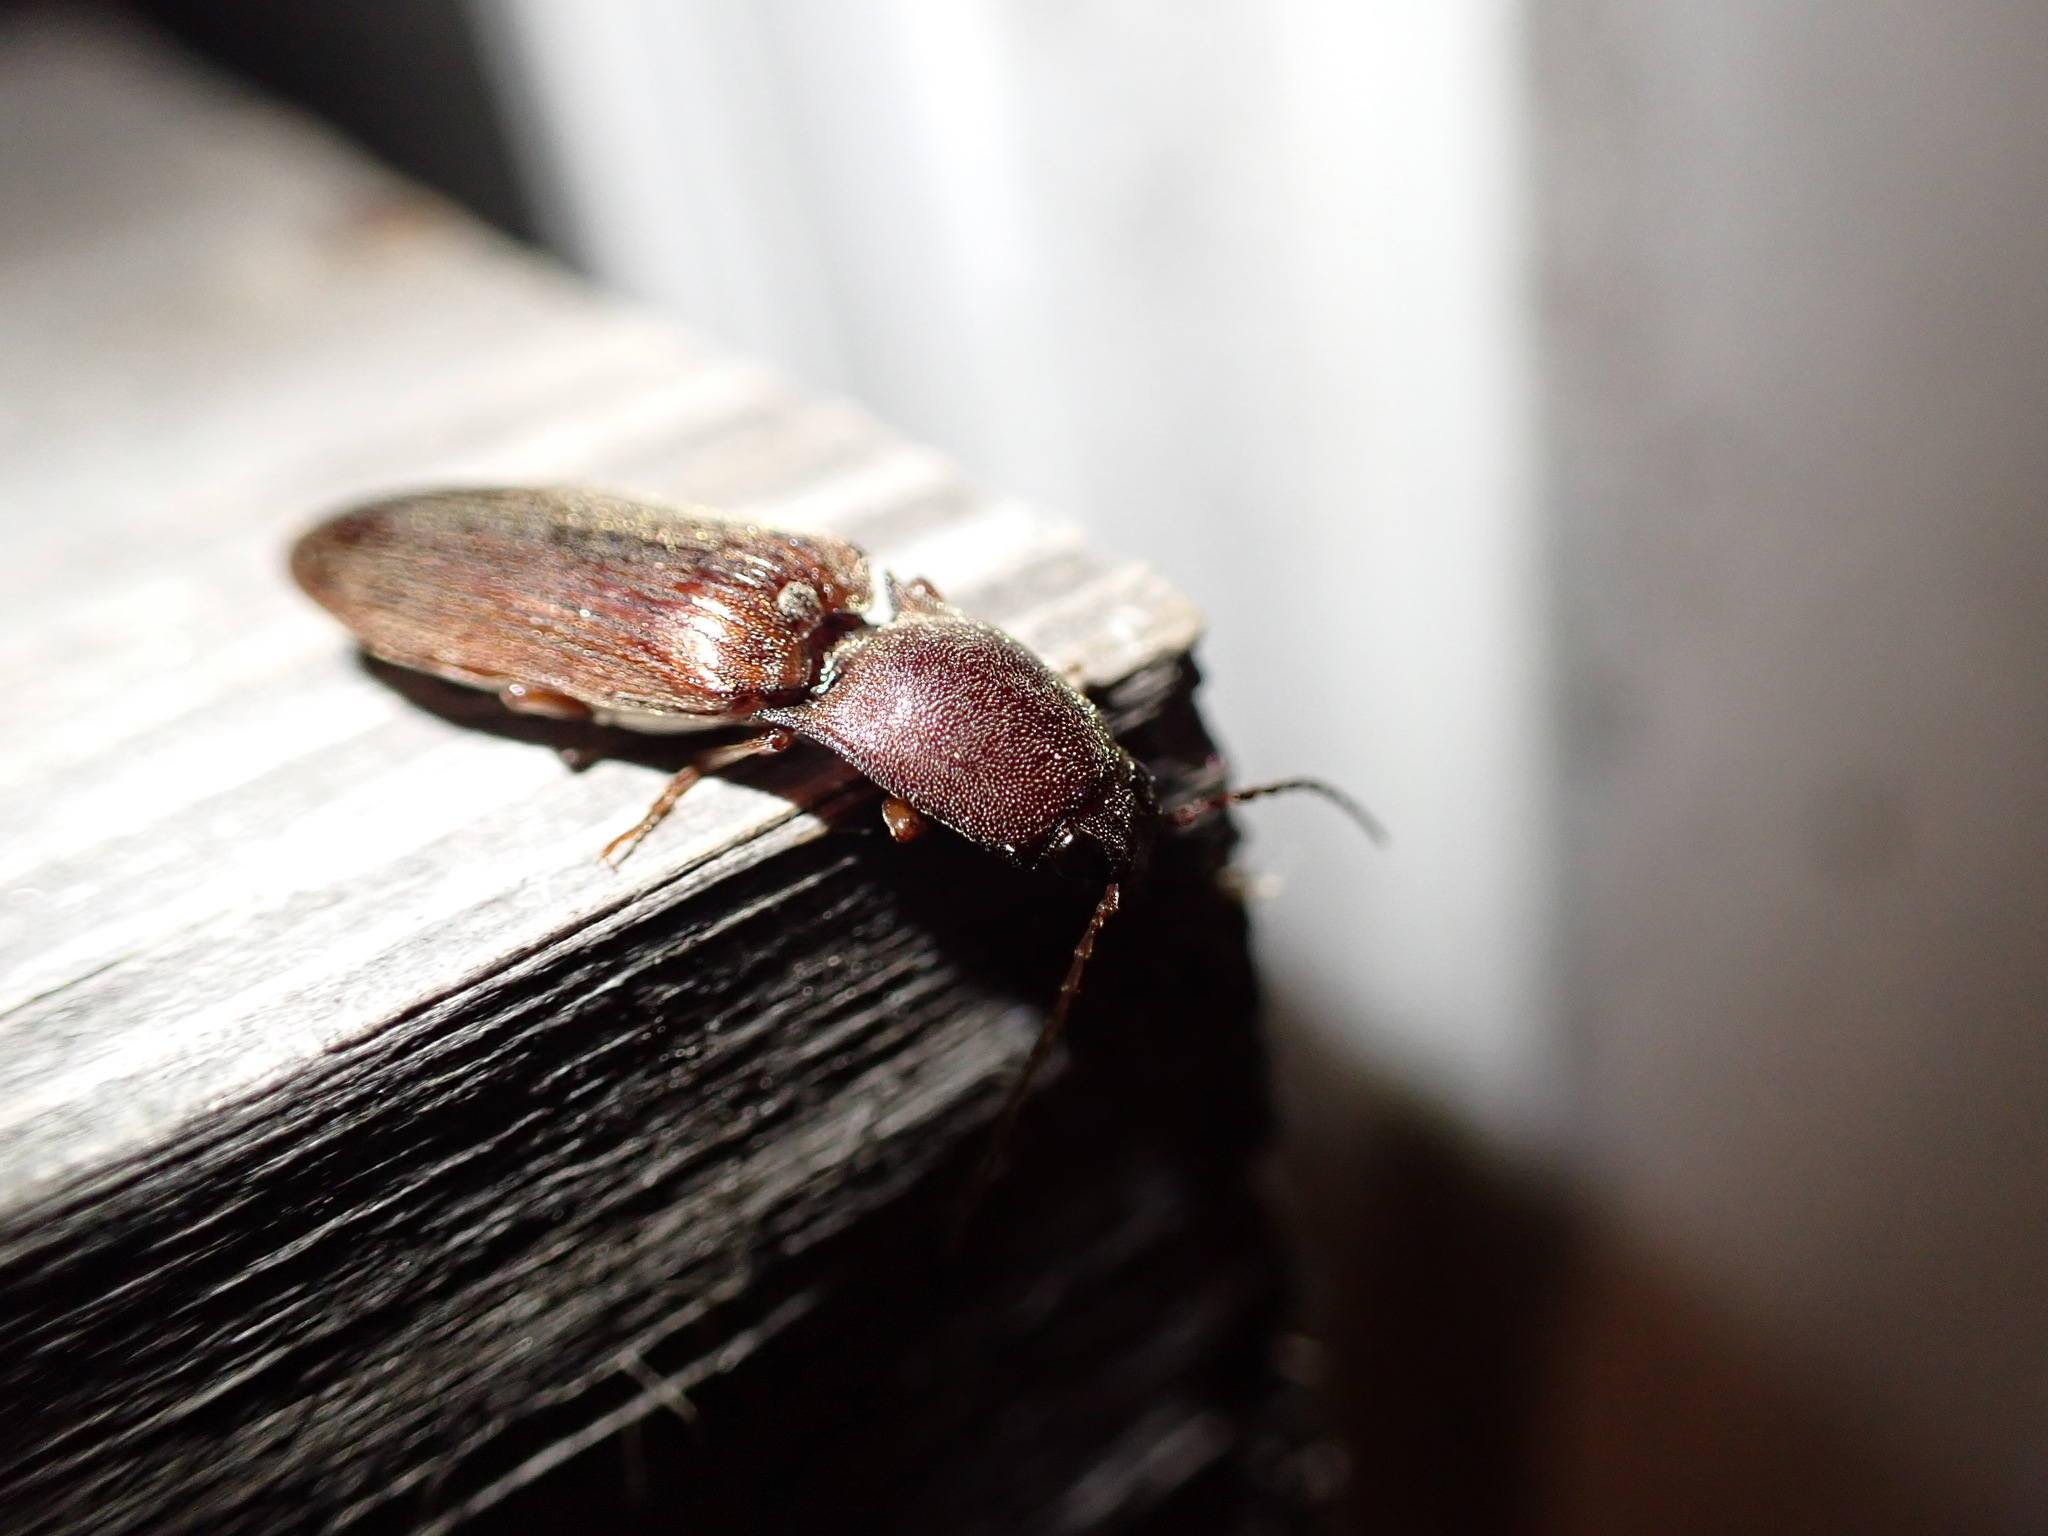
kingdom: Animalia
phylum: Arthropoda
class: Insecta
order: Coleoptera
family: Elateridae
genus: Proludius
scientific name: Proludius pyrros
